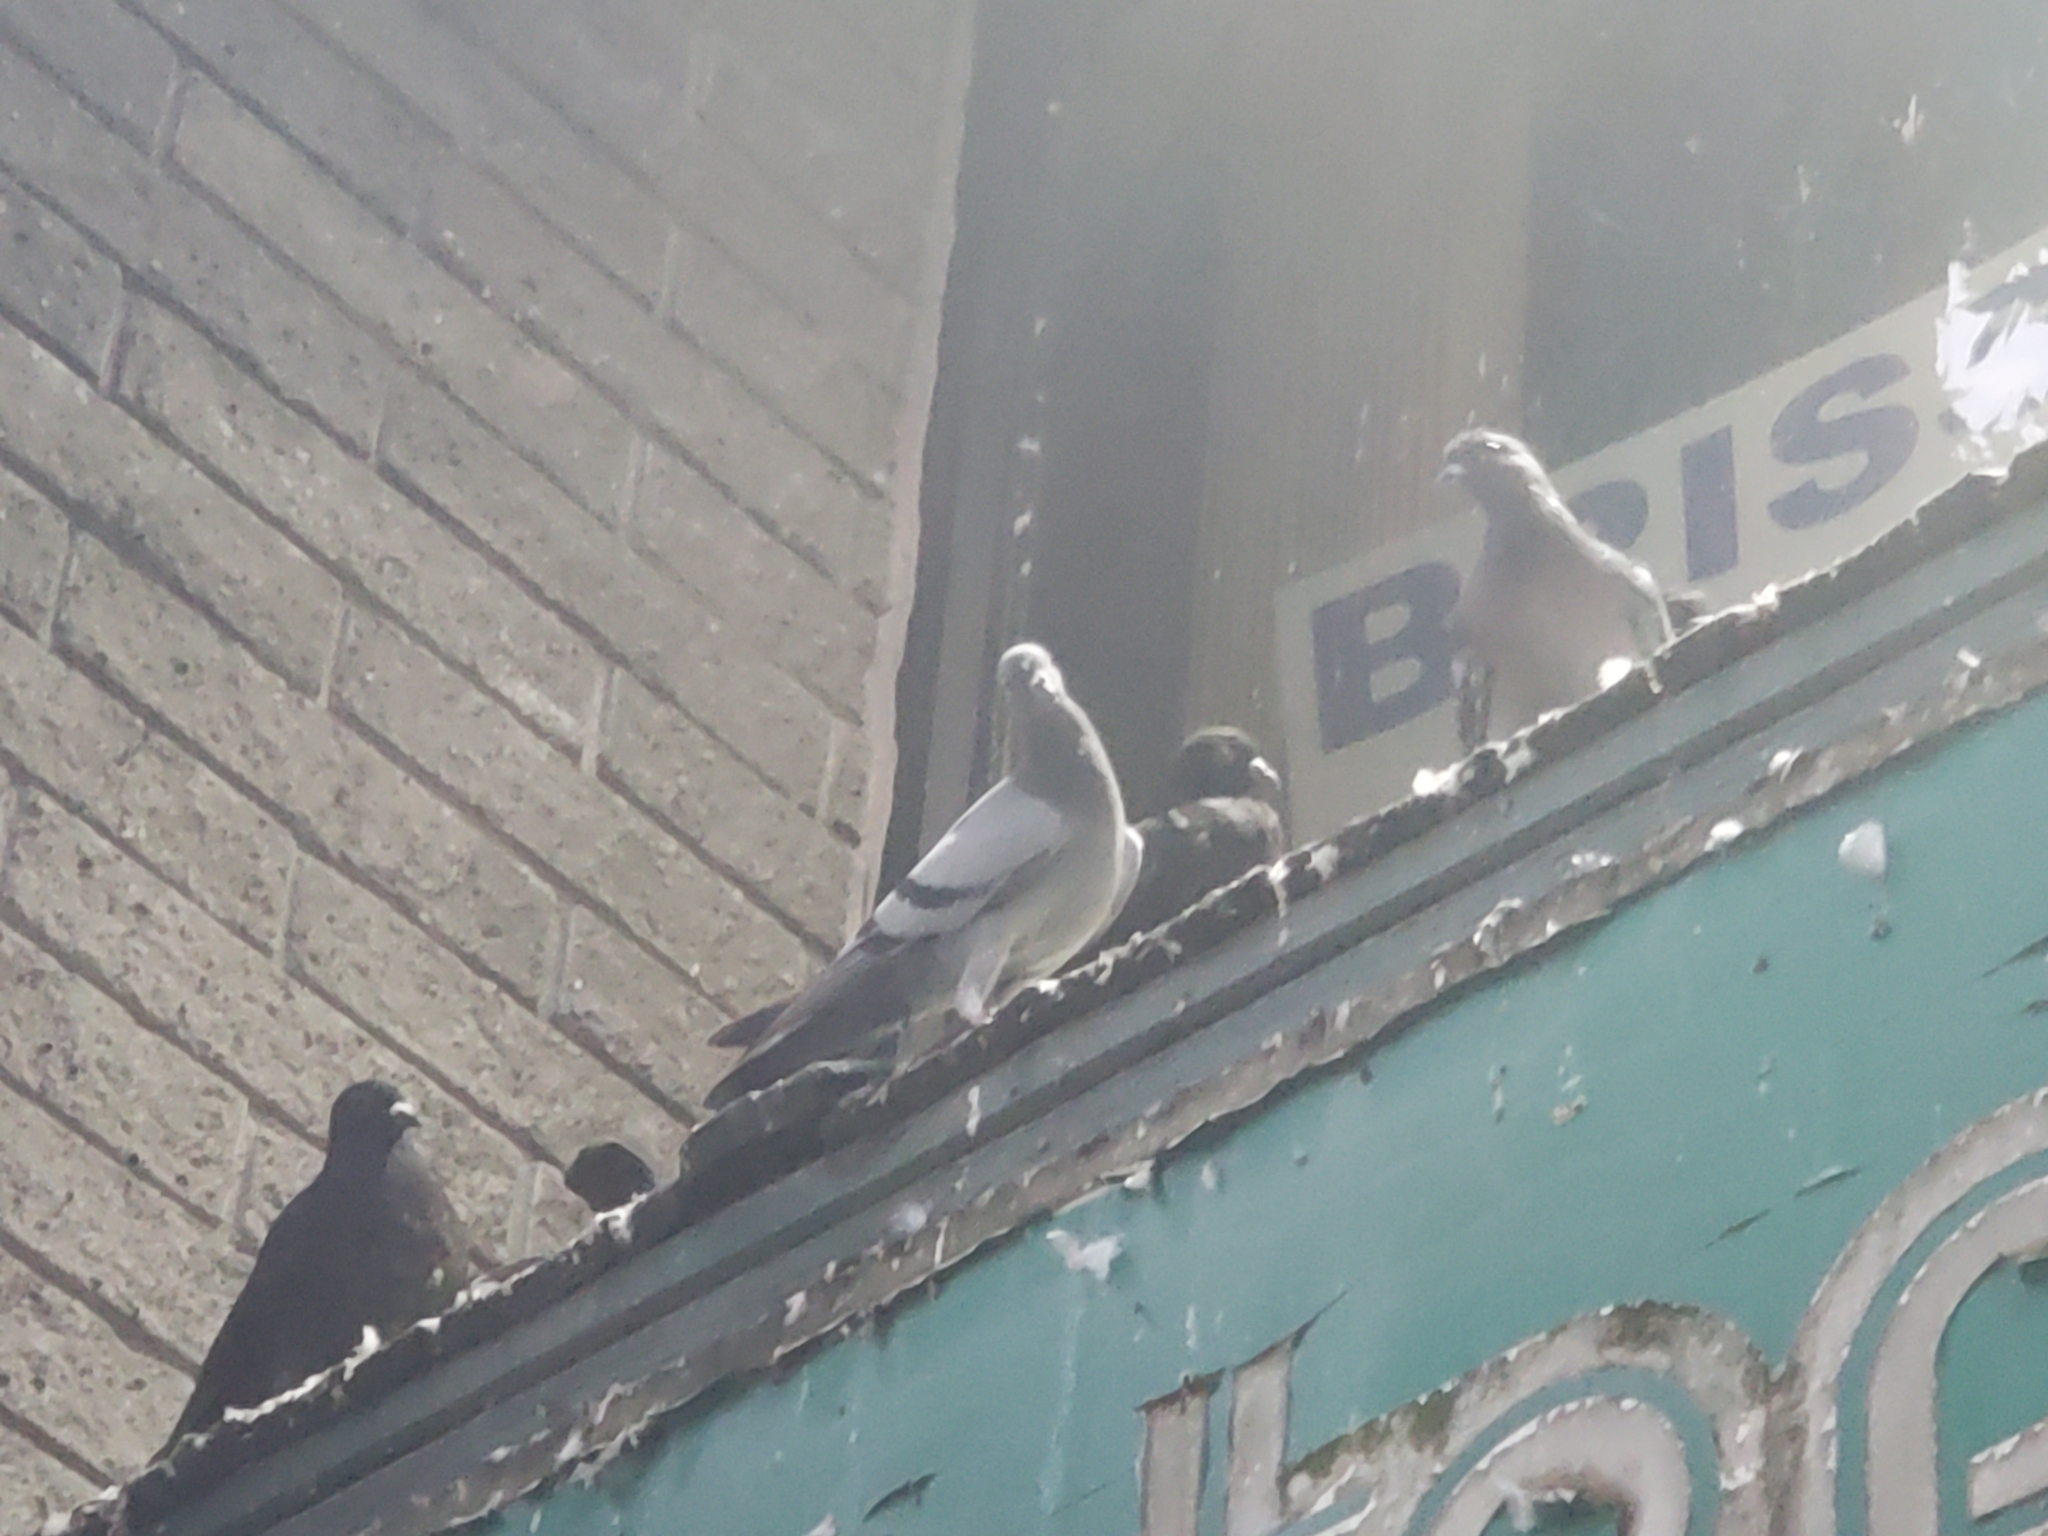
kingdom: Animalia
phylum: Chordata
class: Aves
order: Columbiformes
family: Columbidae
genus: Columba
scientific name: Columba livia
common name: Rock pigeon
